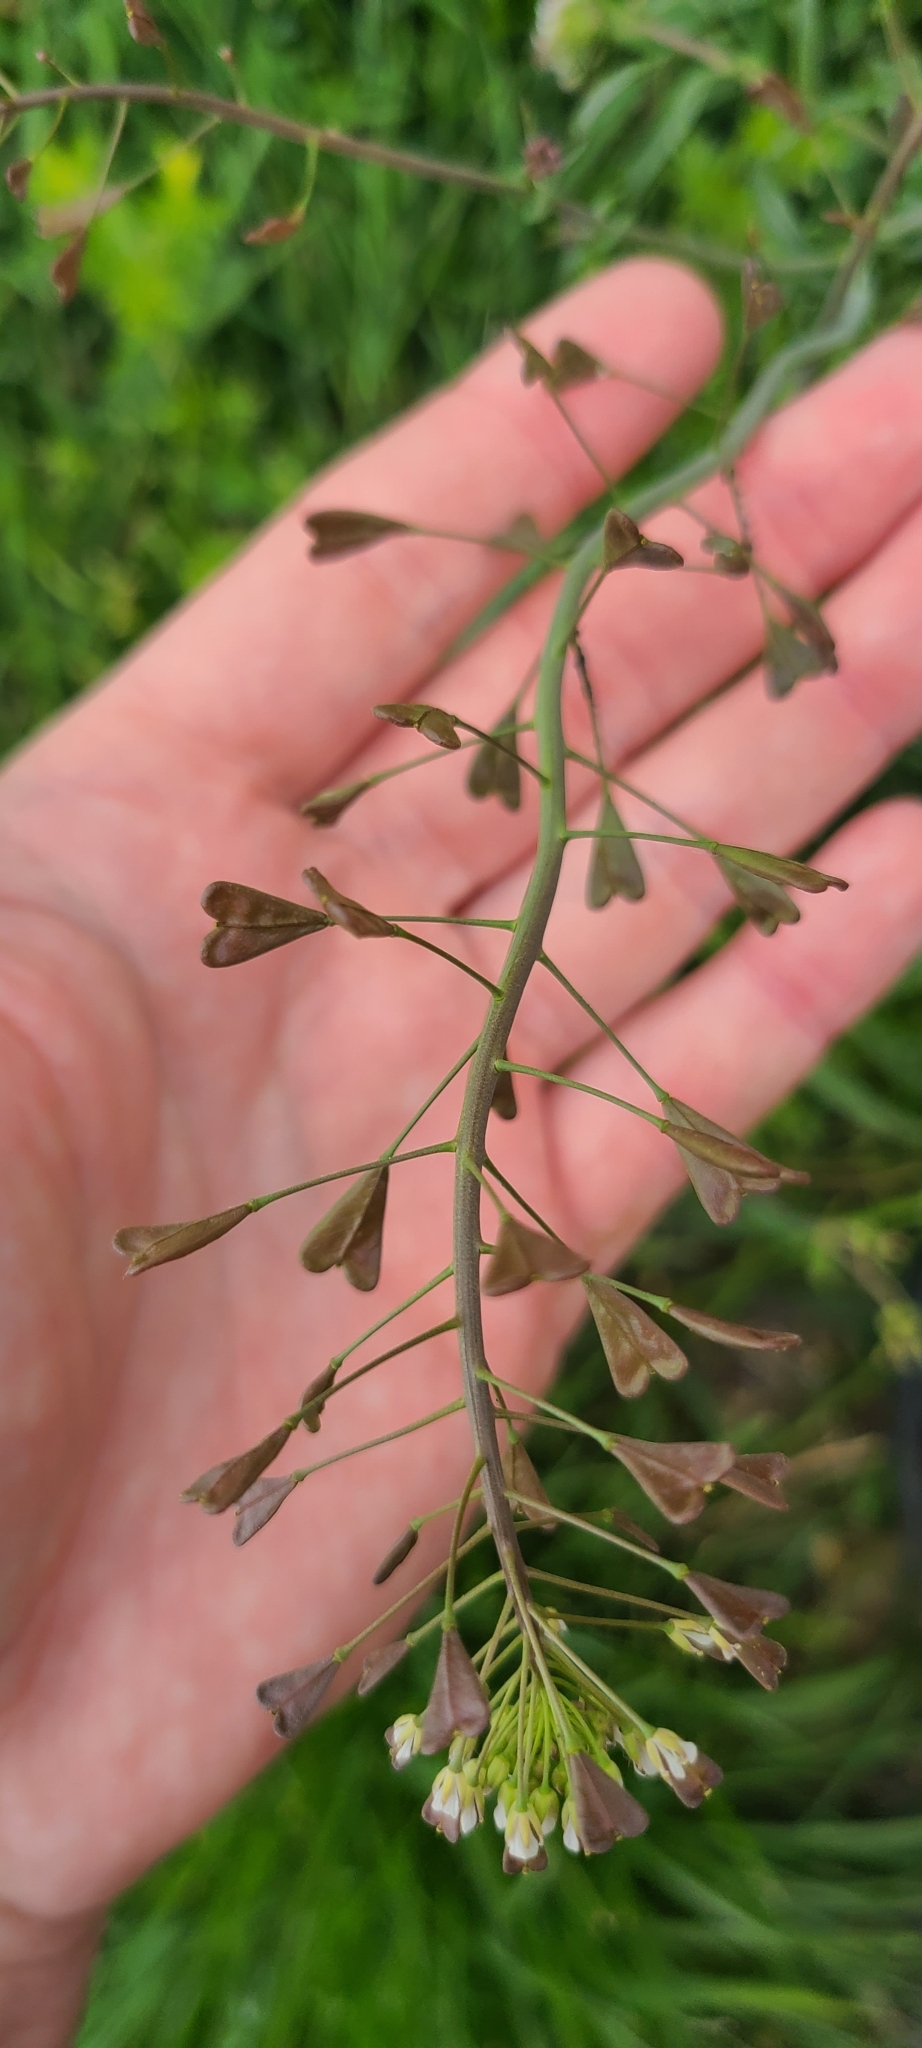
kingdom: Plantae
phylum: Tracheophyta
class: Magnoliopsida
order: Brassicales
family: Brassicaceae
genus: Capsella
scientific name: Capsella bursa-pastoris
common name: Shepherd's purse
